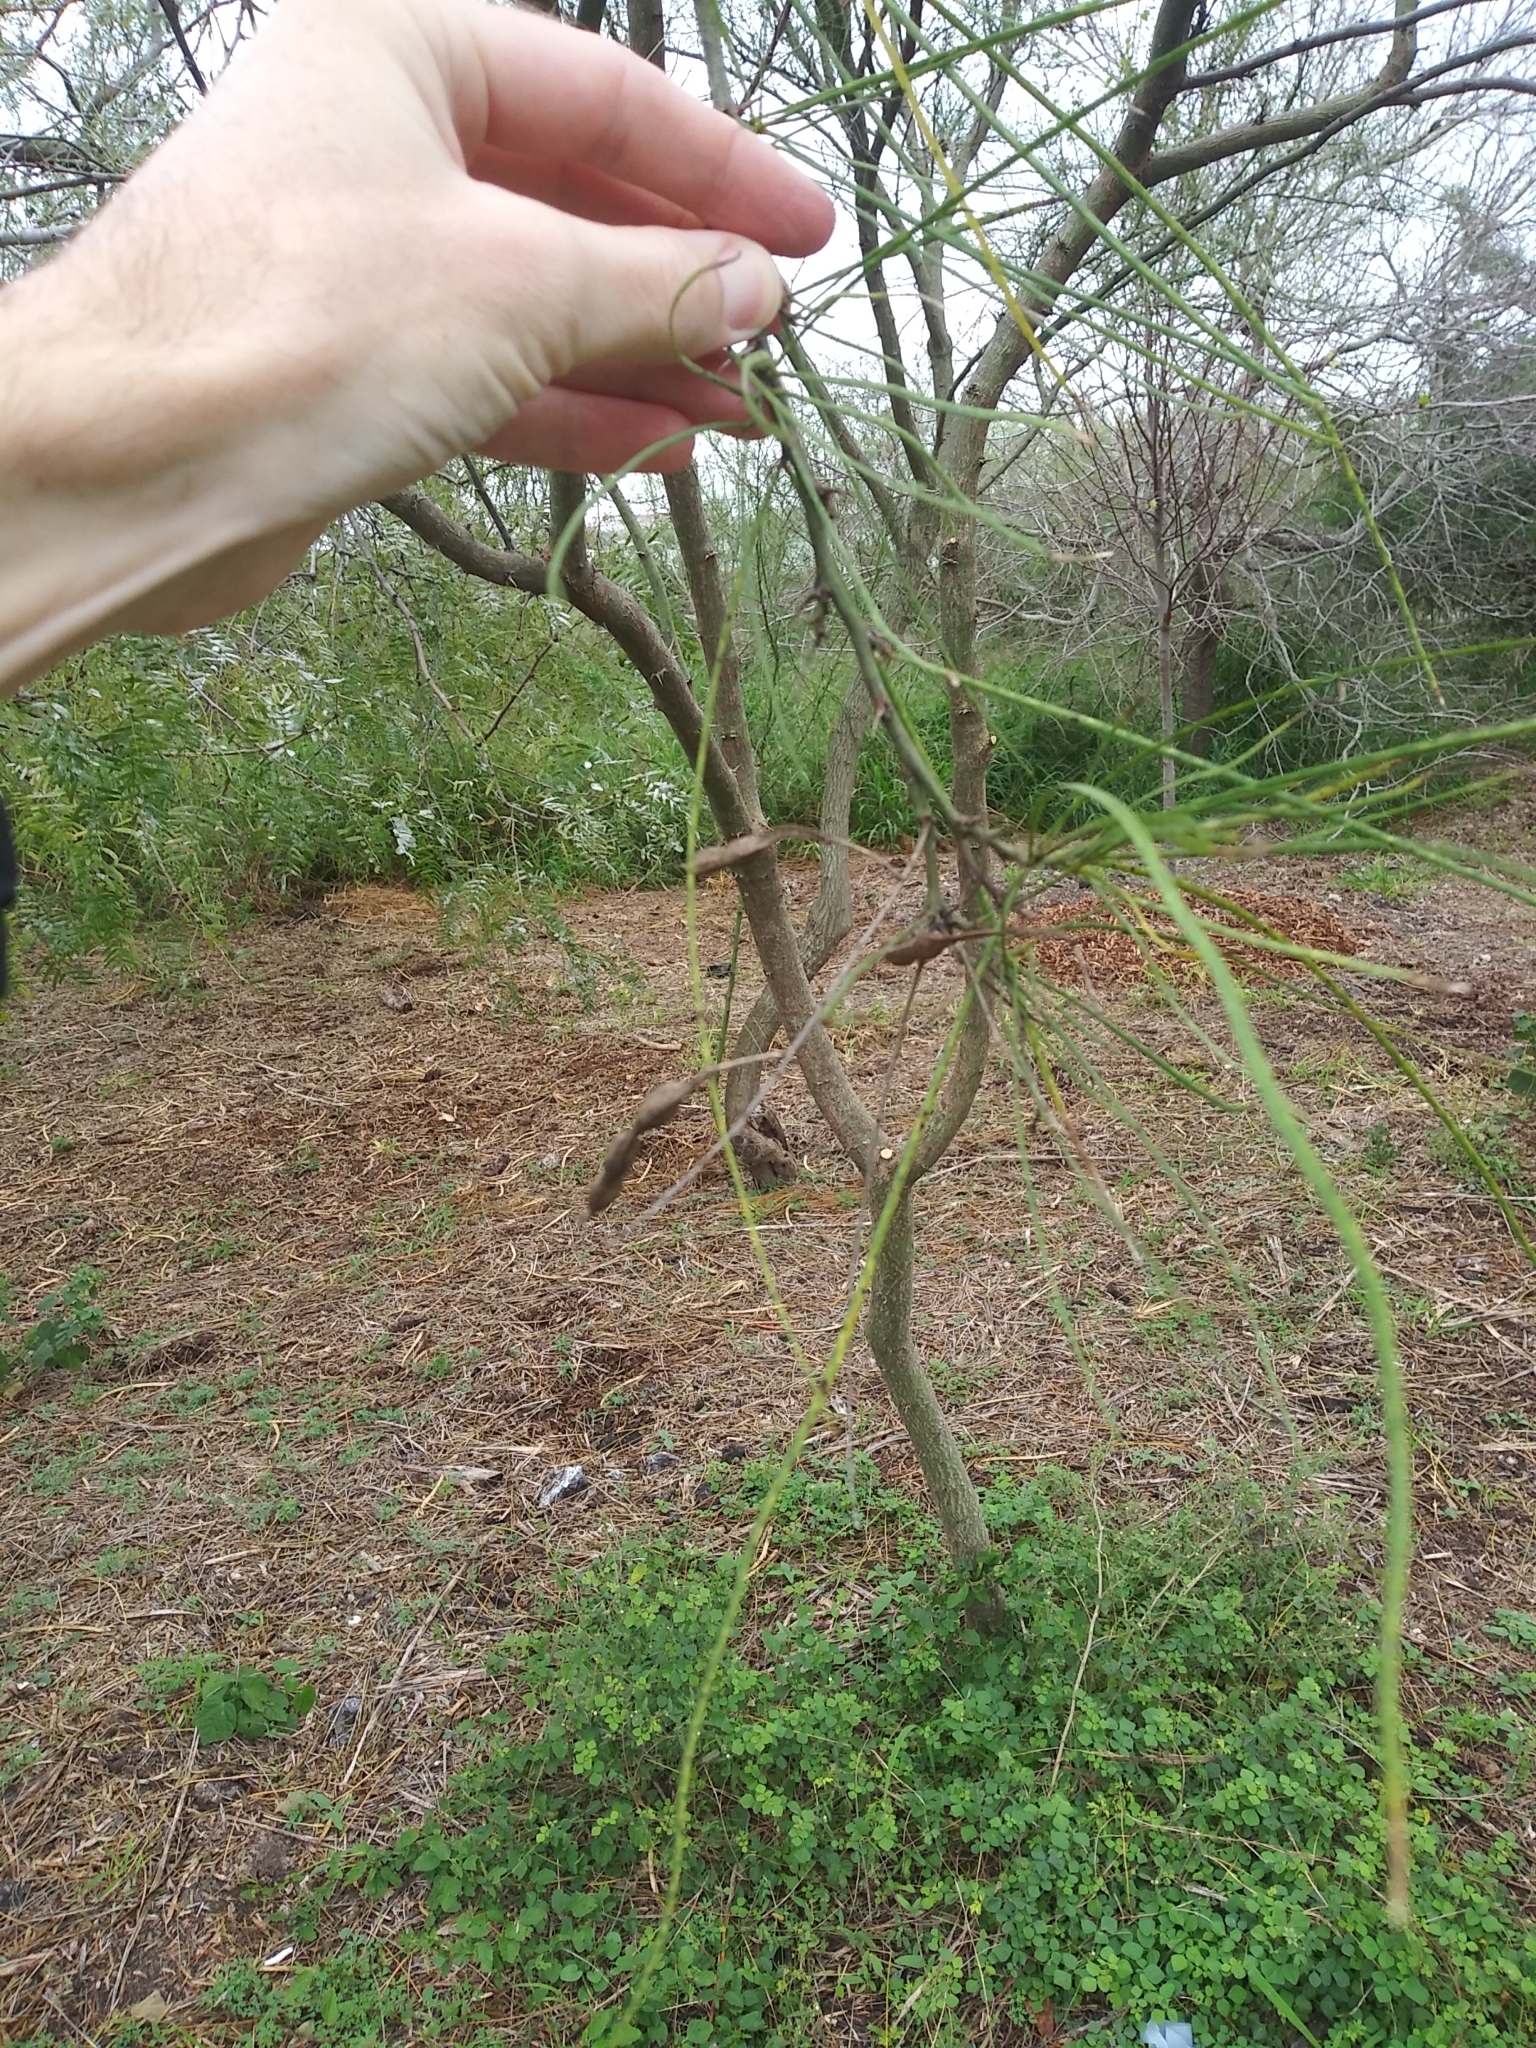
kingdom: Plantae
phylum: Tracheophyta
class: Magnoliopsida
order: Fabales
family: Fabaceae
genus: Parkinsonia
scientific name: Parkinsonia aculeata
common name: Jerusalem thorn
